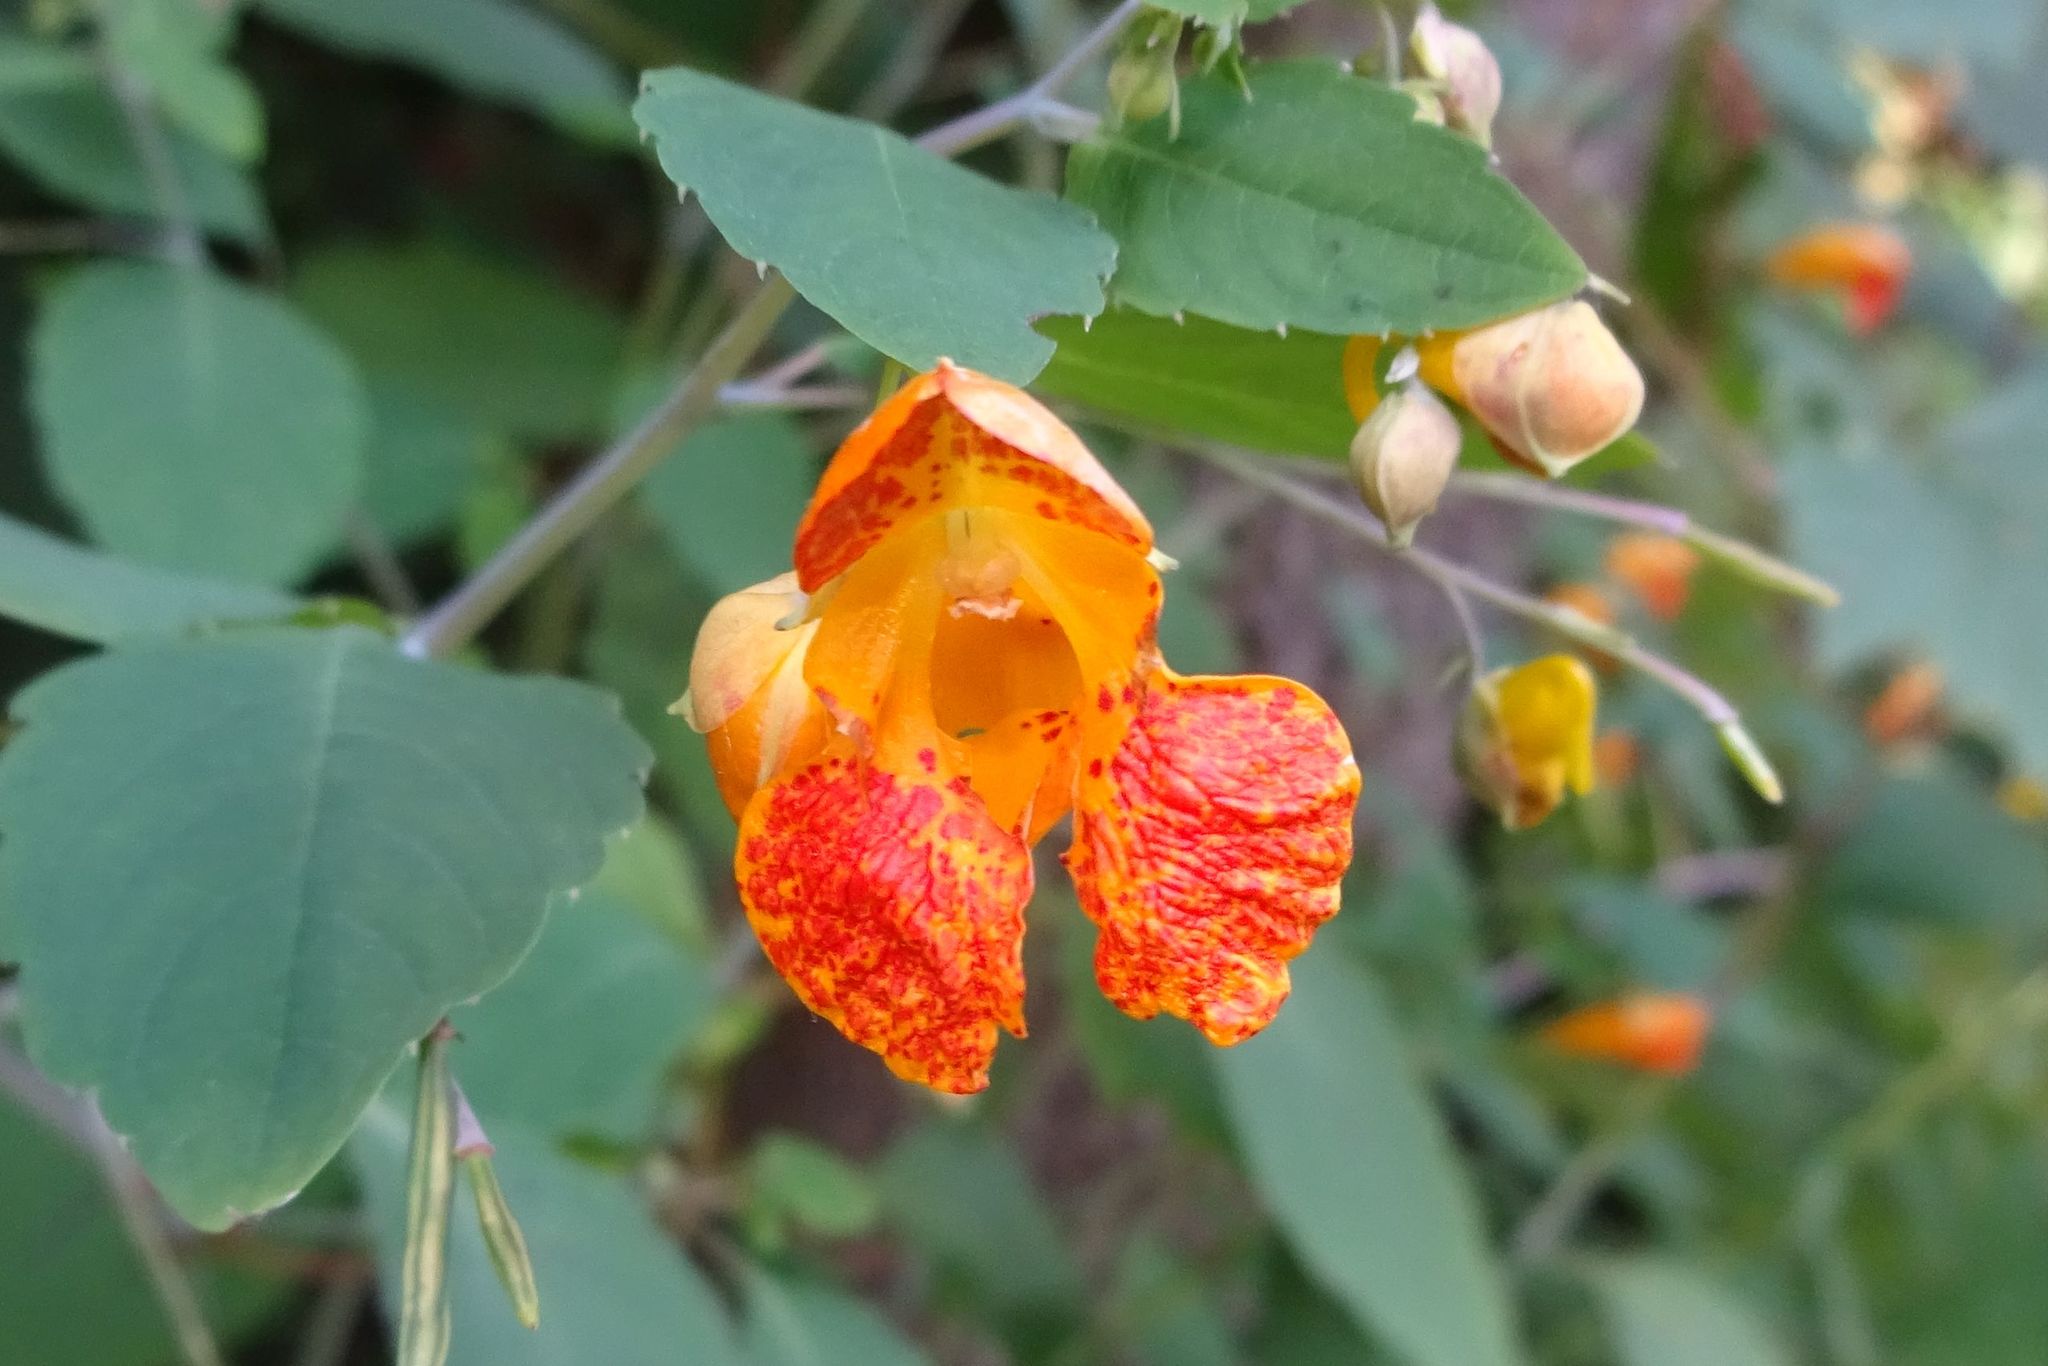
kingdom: Plantae
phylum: Tracheophyta
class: Magnoliopsida
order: Ericales
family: Balsaminaceae
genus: Impatiens
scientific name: Impatiens capensis
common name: Orange balsam
